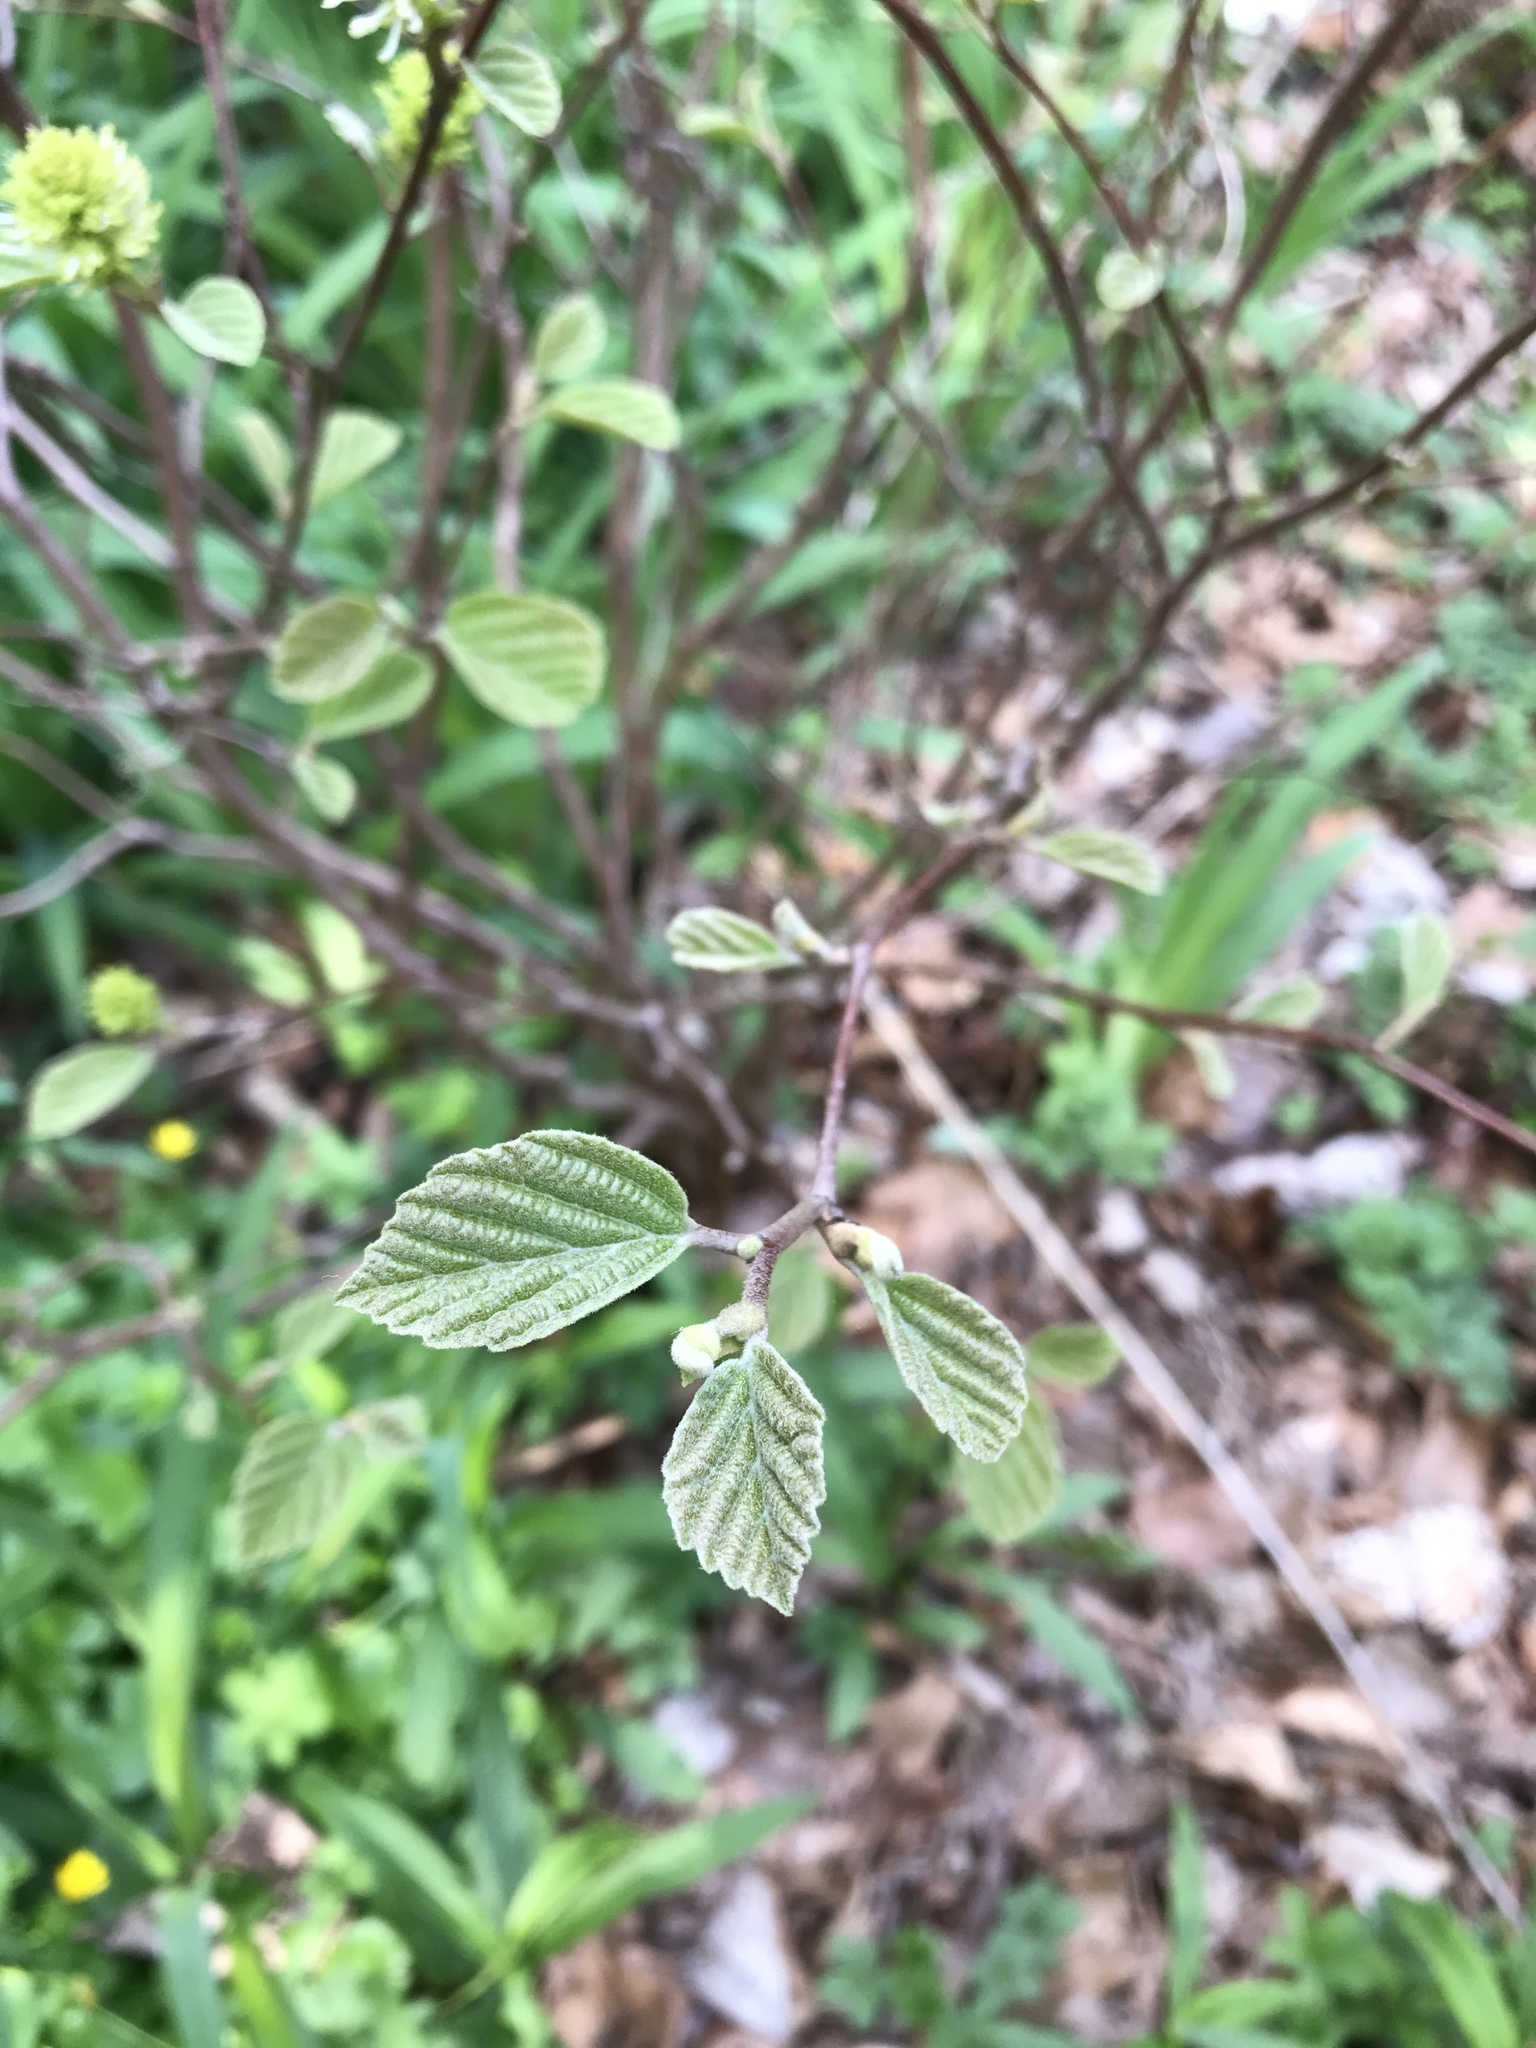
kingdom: Plantae
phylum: Tracheophyta
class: Magnoliopsida
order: Gentianales
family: Rubiaceae
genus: Cephalanthus
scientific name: Cephalanthus occidentalis
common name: Button-willow
